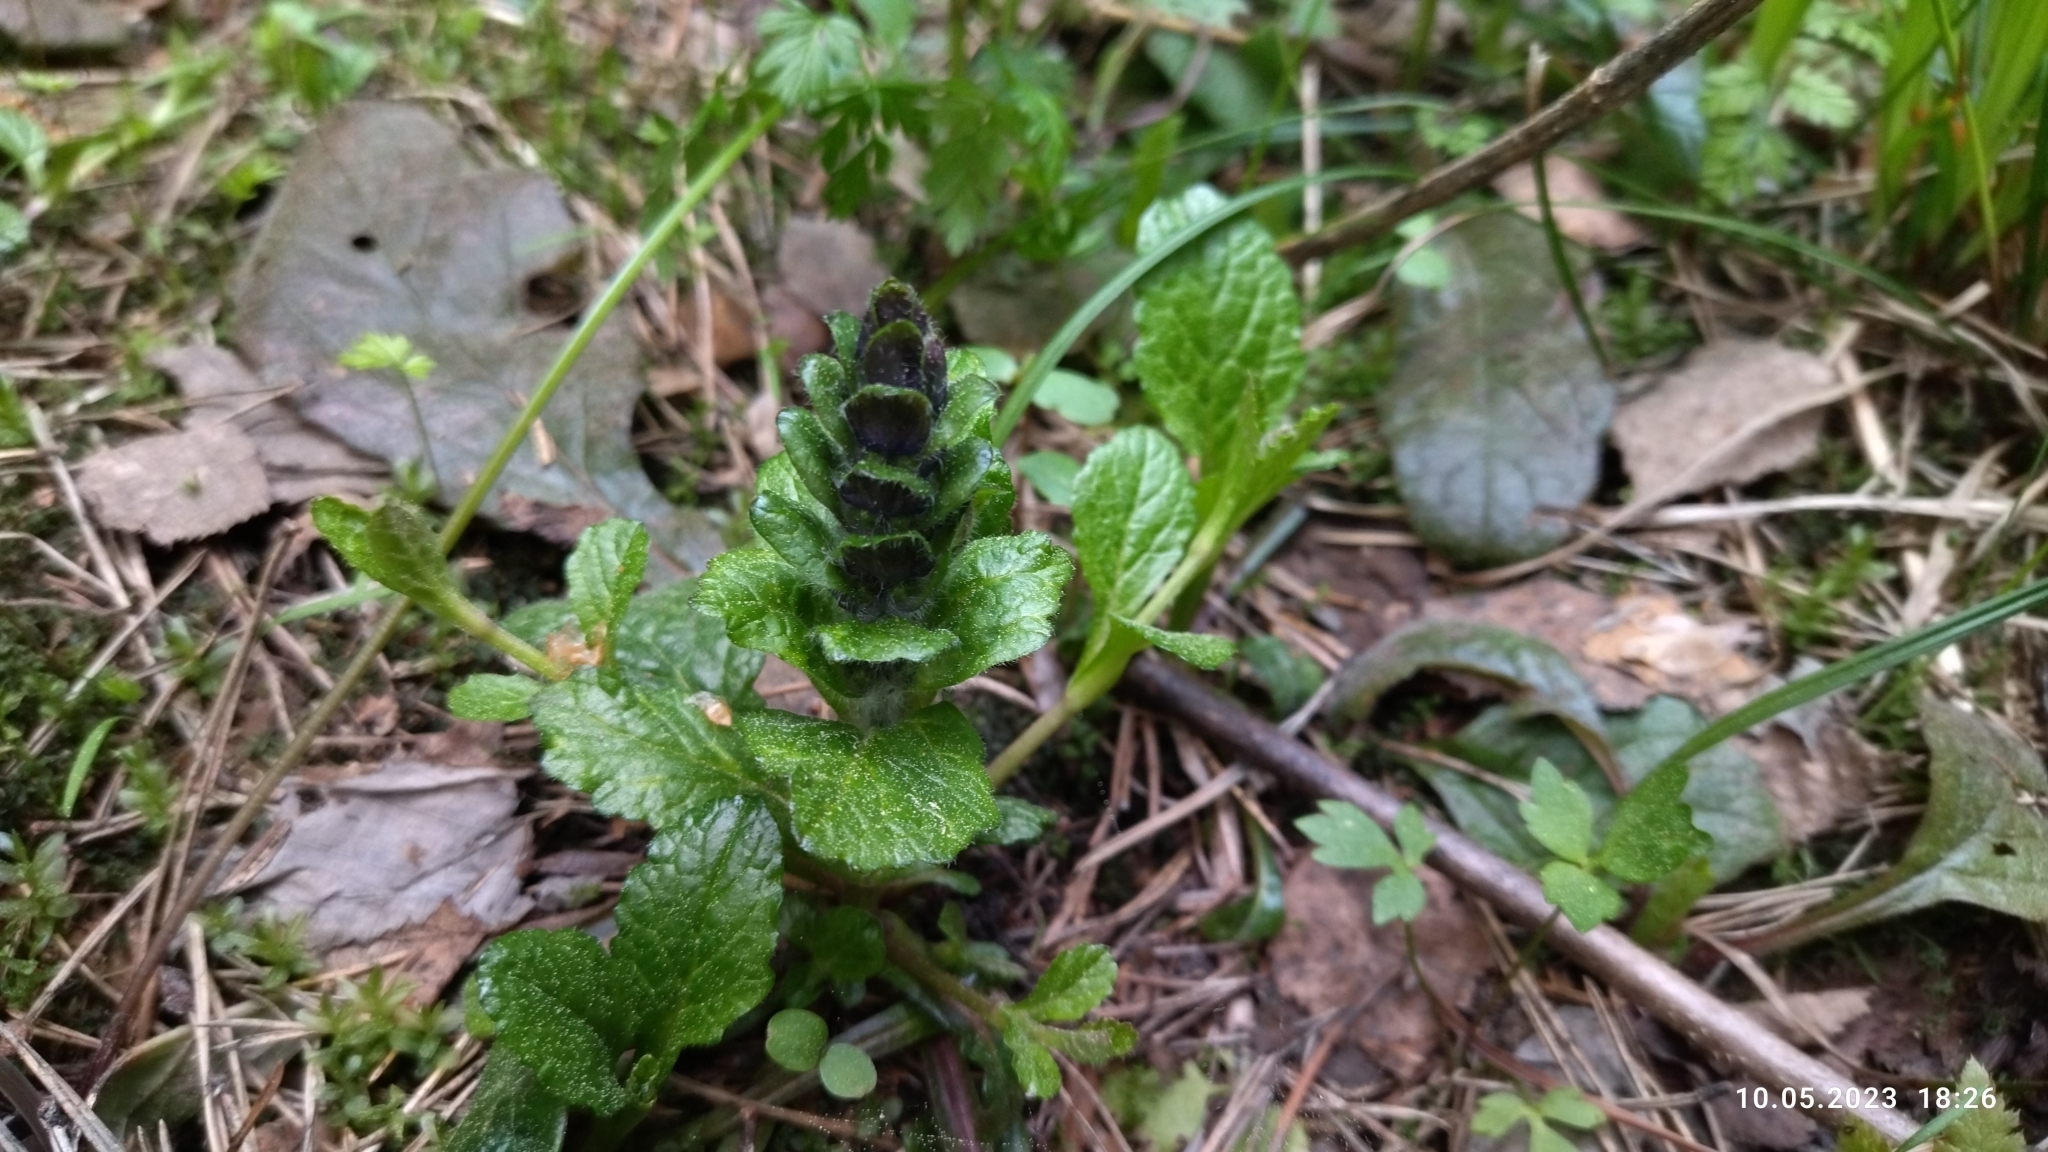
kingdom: Plantae
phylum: Tracheophyta
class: Magnoliopsida
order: Lamiales
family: Lamiaceae
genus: Ajuga
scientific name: Ajuga reptans
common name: Bugle
